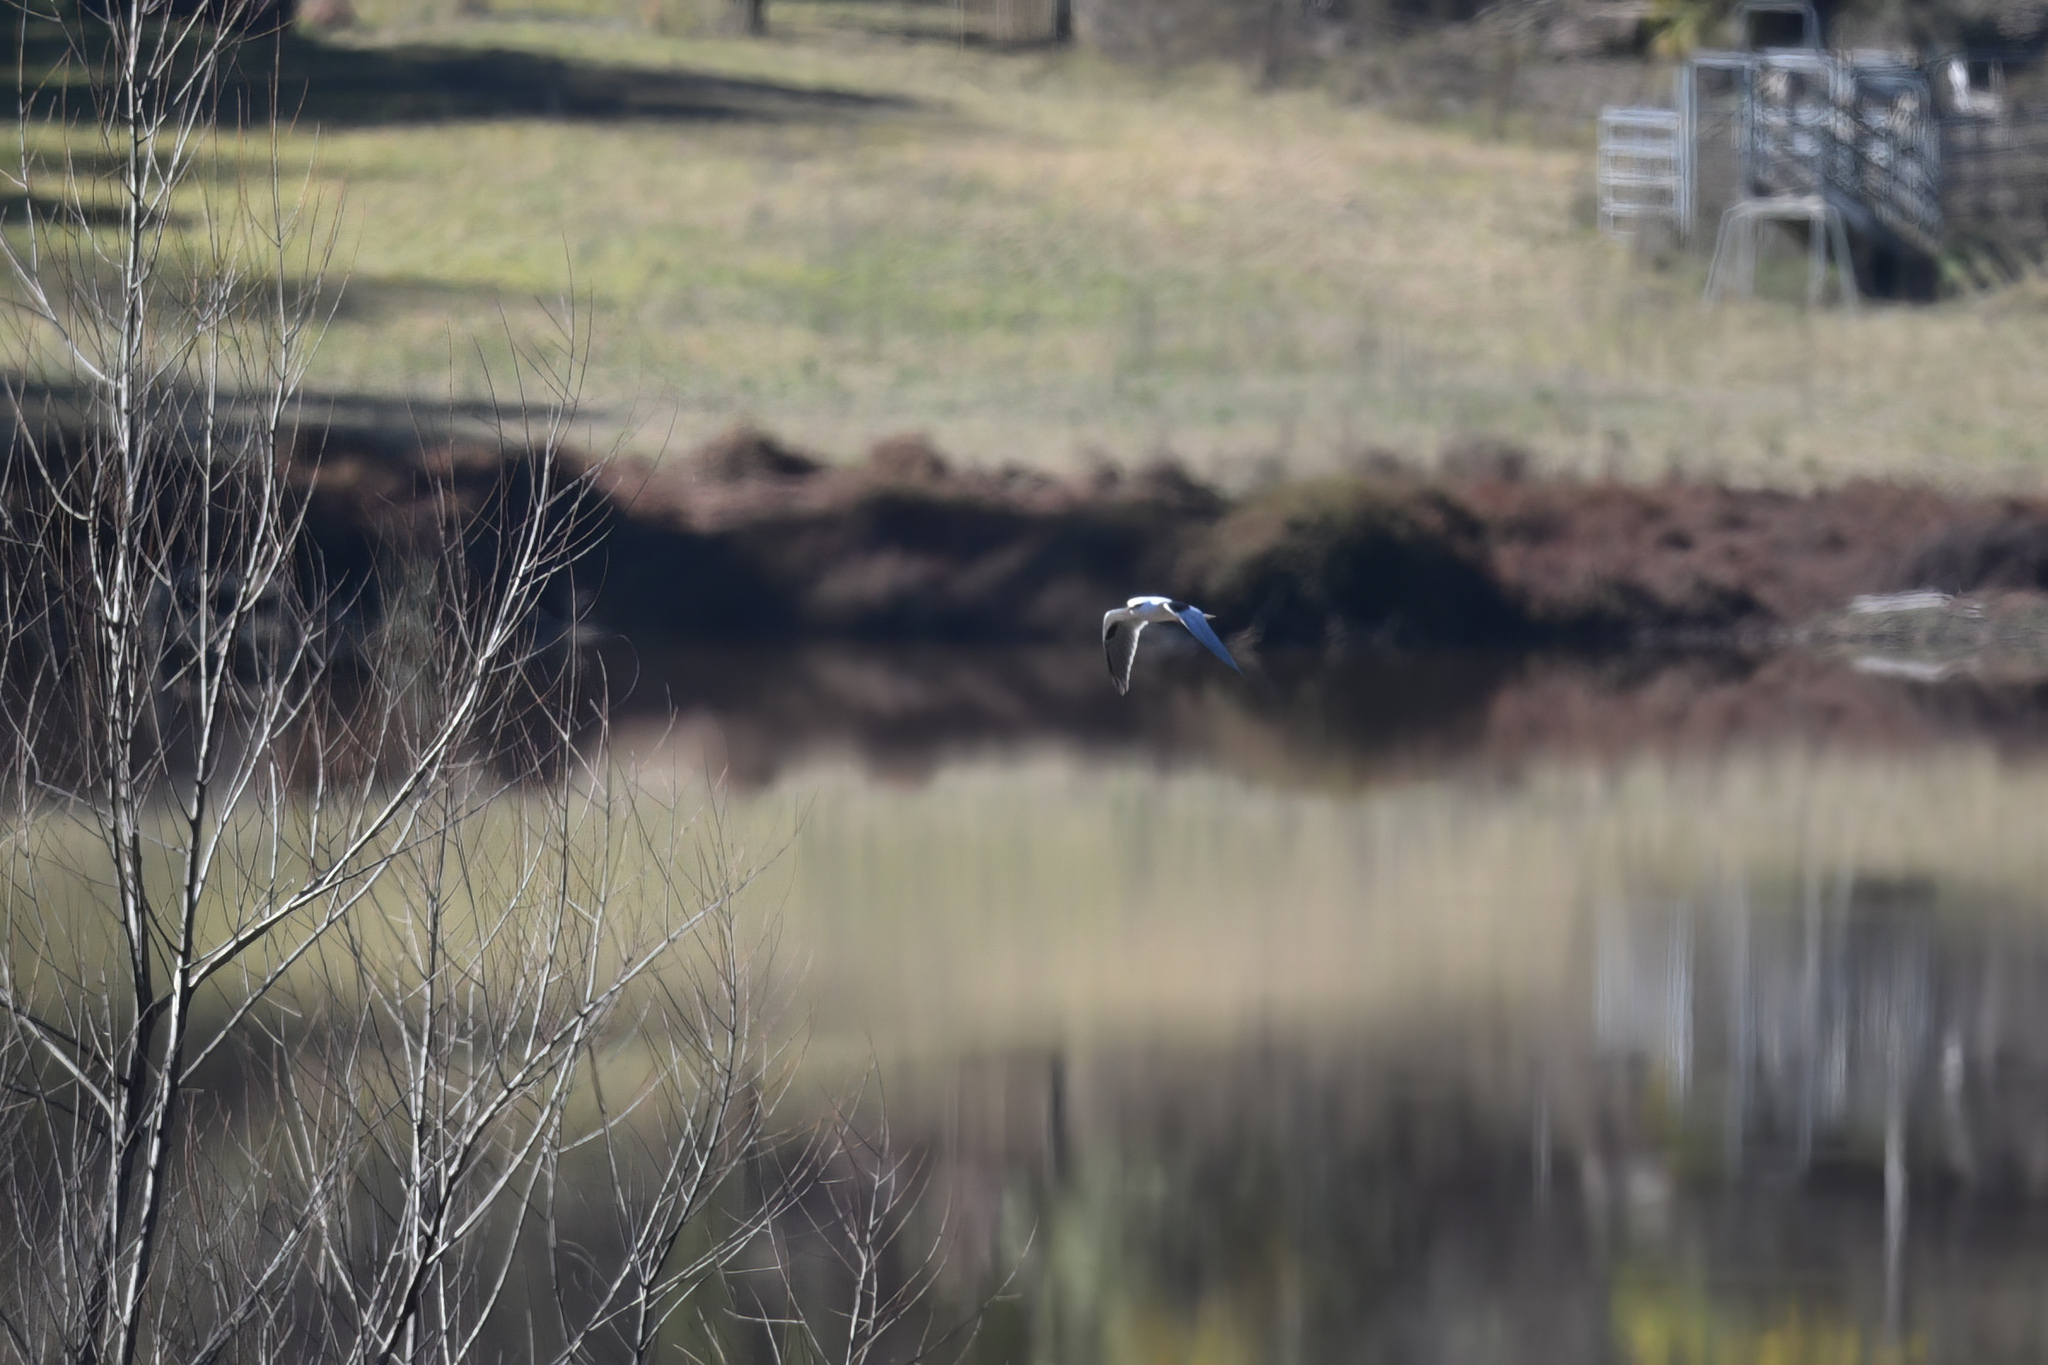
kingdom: Animalia
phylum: Chordata
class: Aves
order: Accipitriformes
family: Accipitridae
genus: Elanus
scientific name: Elanus axillaris
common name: Black-shouldered kite
